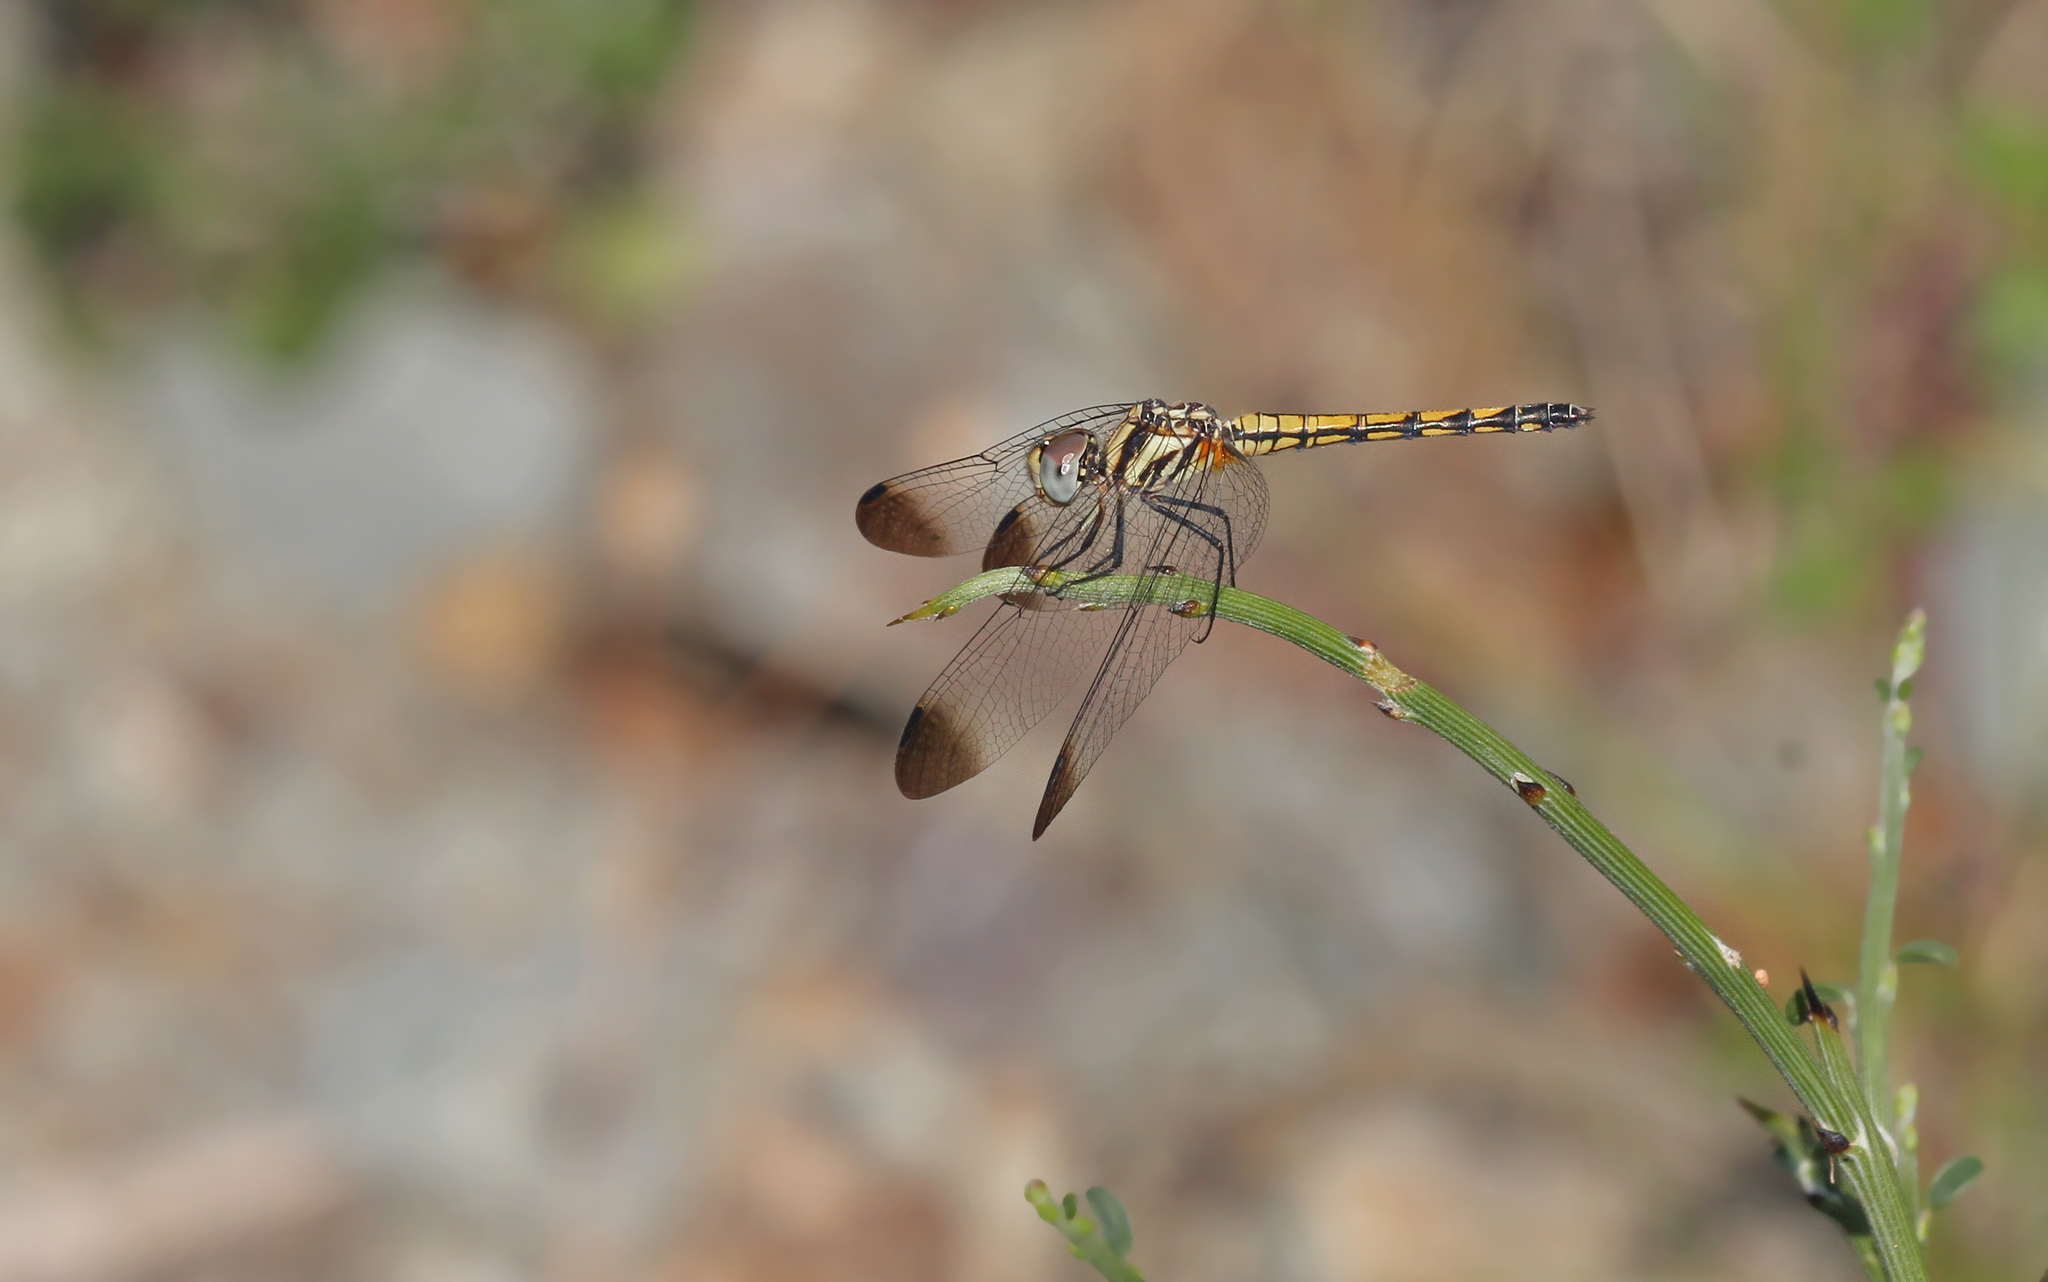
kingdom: Animalia
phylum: Arthropoda
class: Insecta
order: Odonata
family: Libellulidae
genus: Trithemis
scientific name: Trithemis festiva
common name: Indigo dropwing
